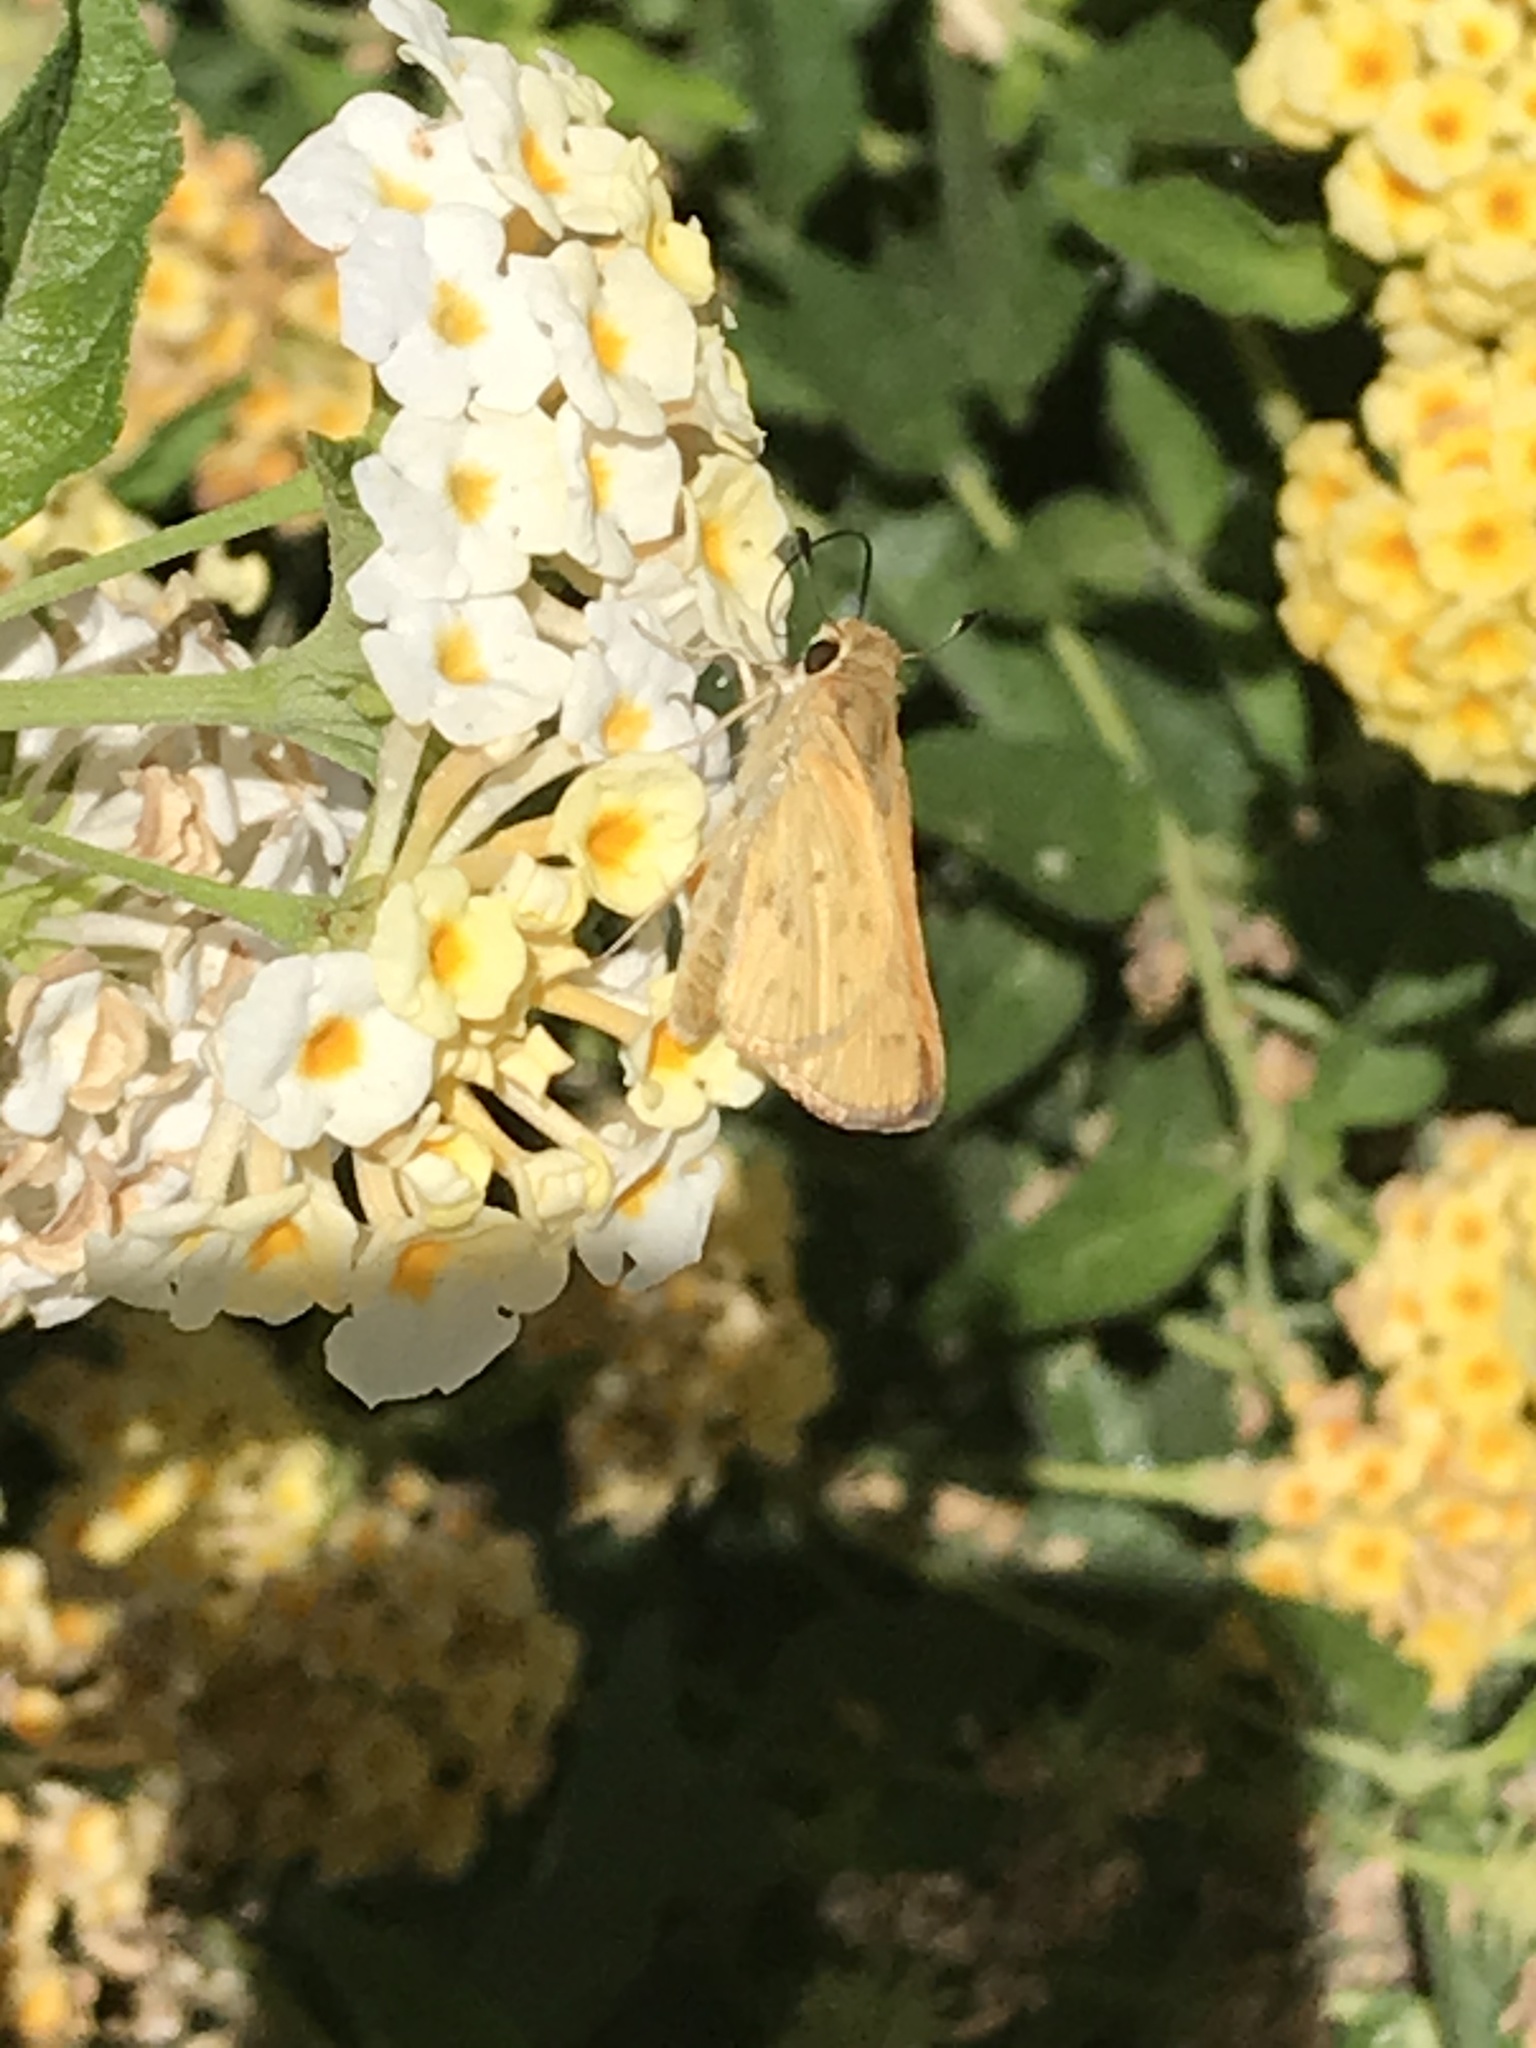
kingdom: Animalia
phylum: Arthropoda
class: Insecta
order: Lepidoptera
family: Hesperiidae
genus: Hylephila
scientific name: Hylephila phyleus
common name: Fiery skipper
